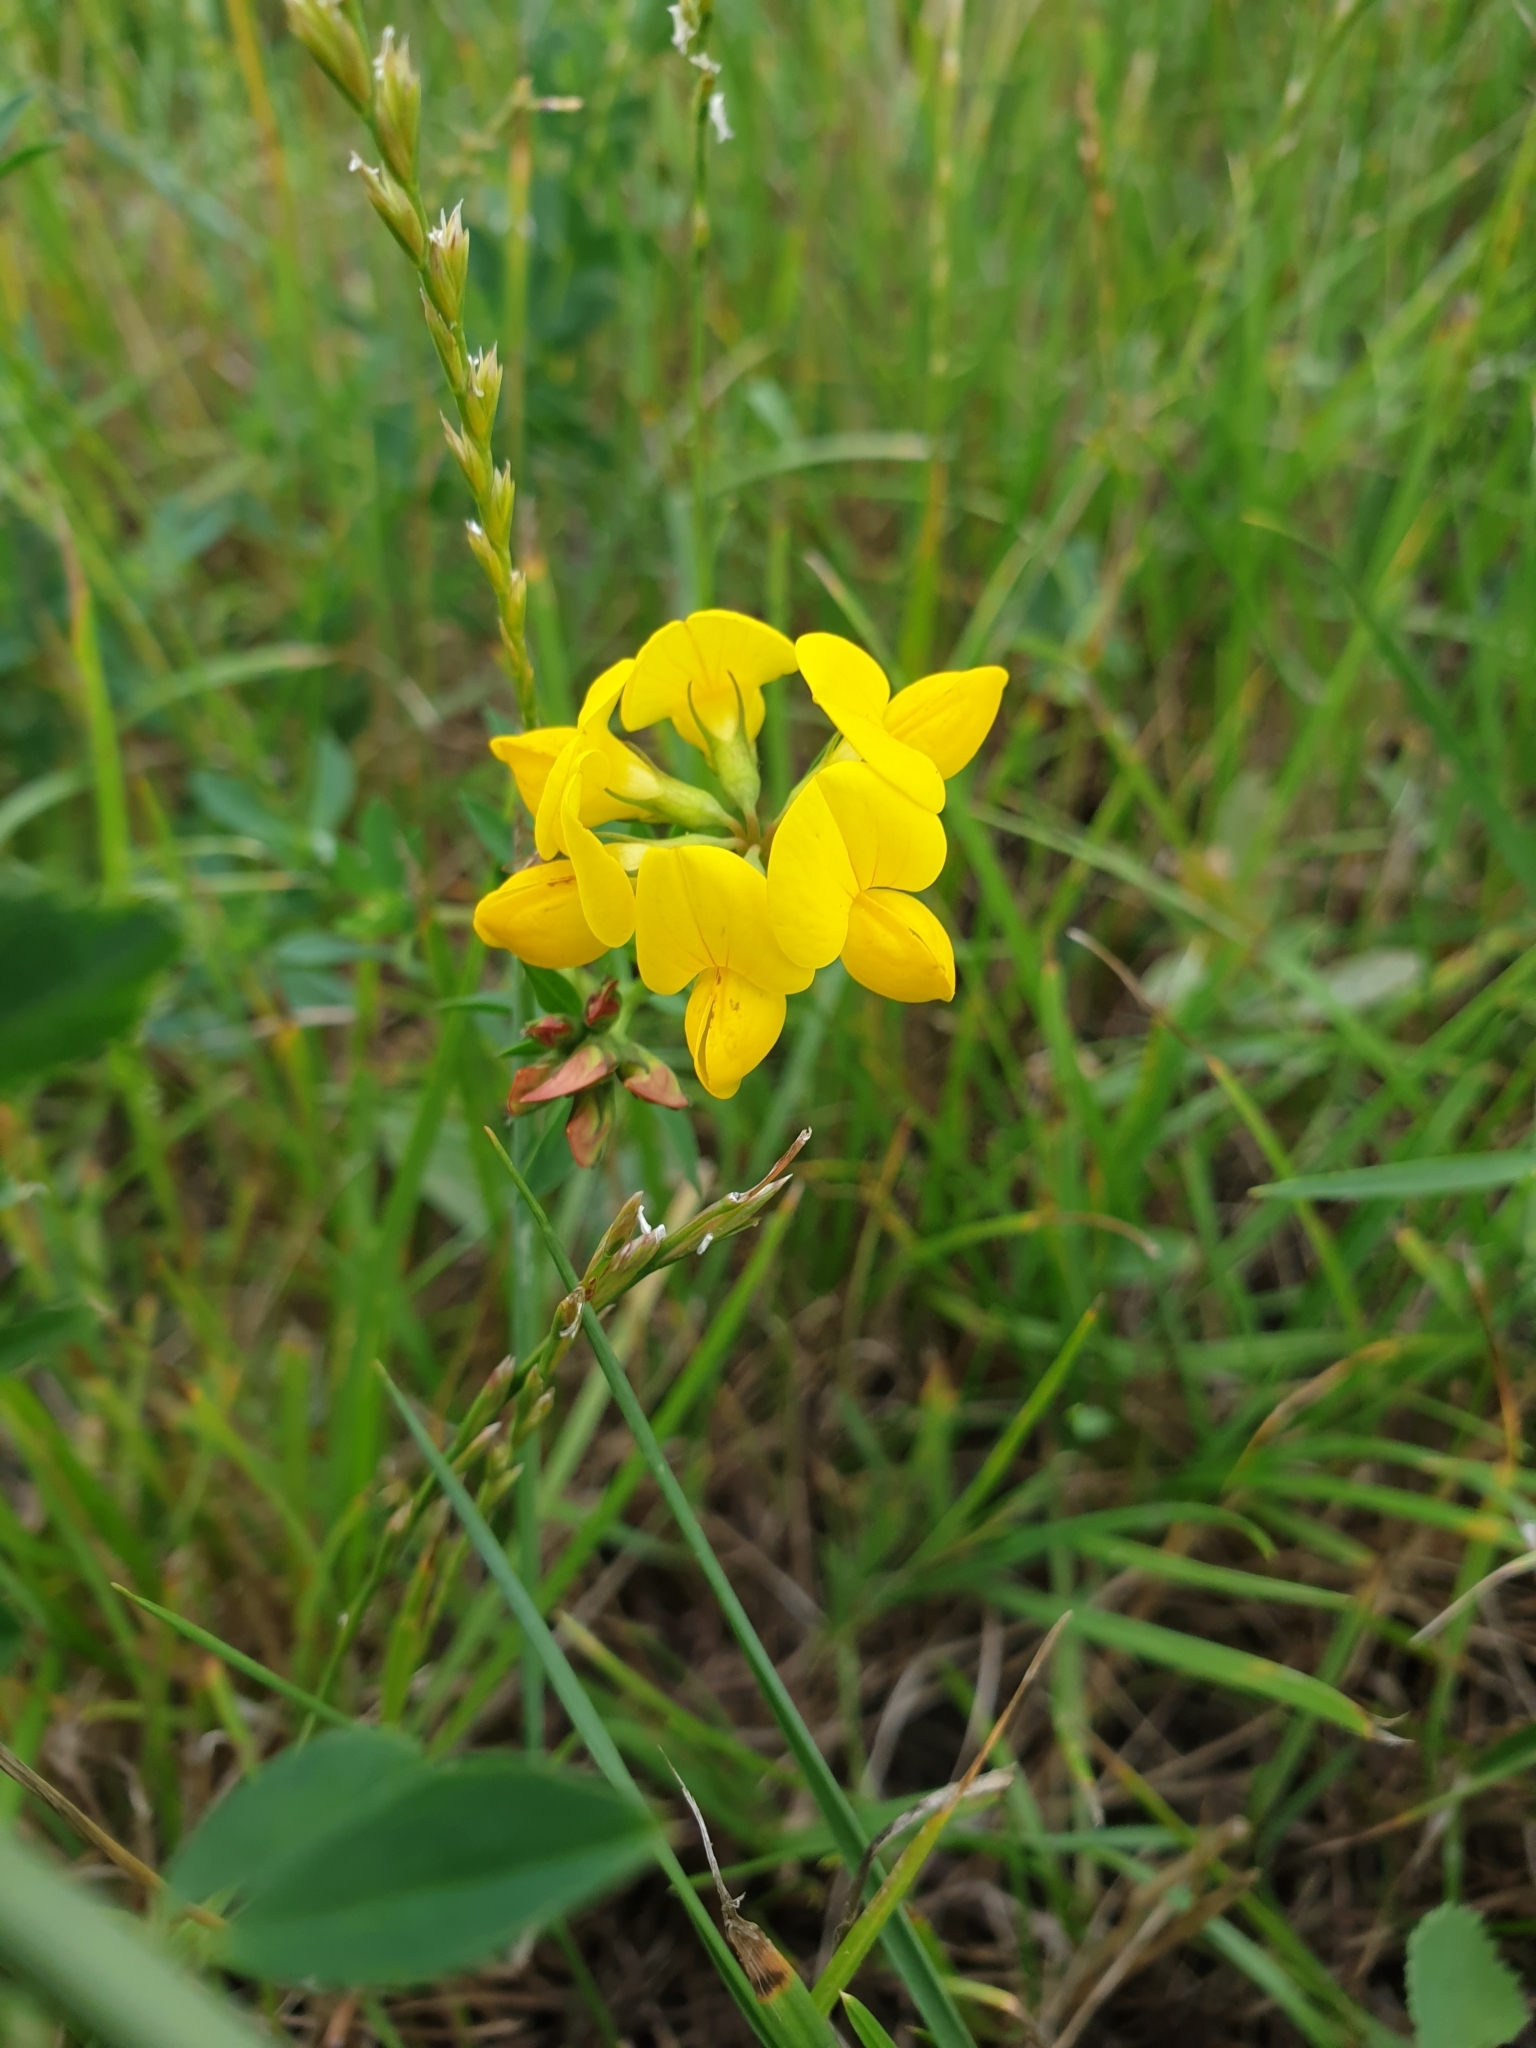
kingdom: Plantae
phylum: Tracheophyta
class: Magnoliopsida
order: Fabales
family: Fabaceae
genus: Lotus
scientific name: Lotus corniculatus
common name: Common bird's-foot-trefoil
